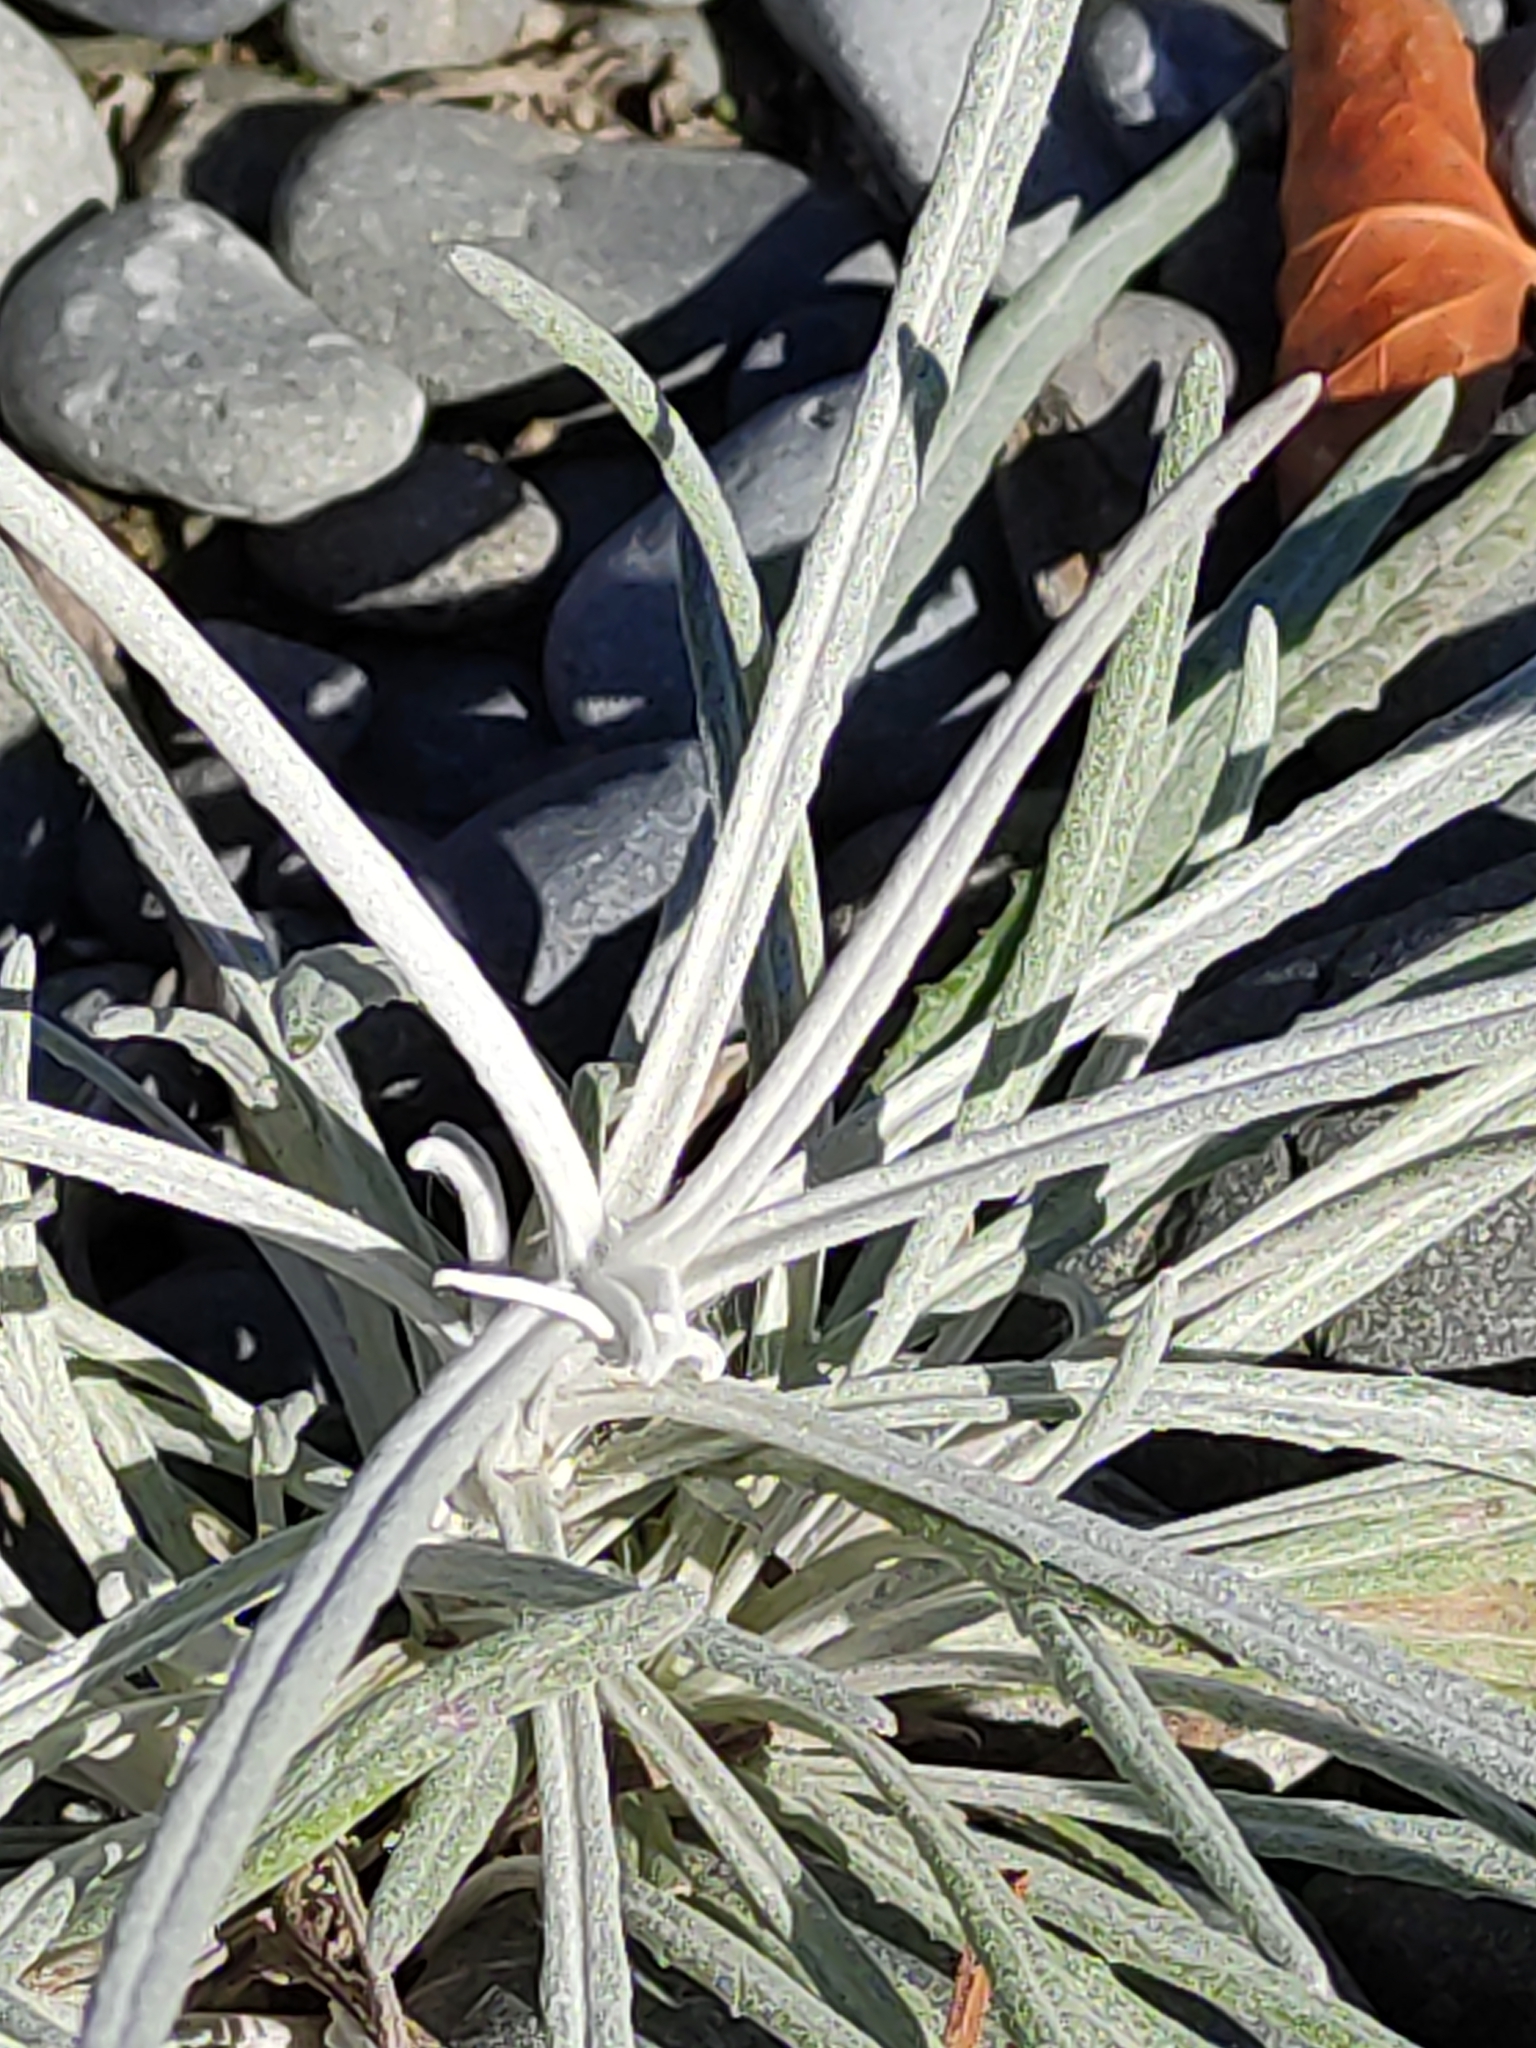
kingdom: Plantae
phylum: Tracheophyta
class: Magnoliopsida
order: Asterales
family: Asteraceae
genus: Senecio
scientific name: Senecio quadridentatus
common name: Cotton fireweed
